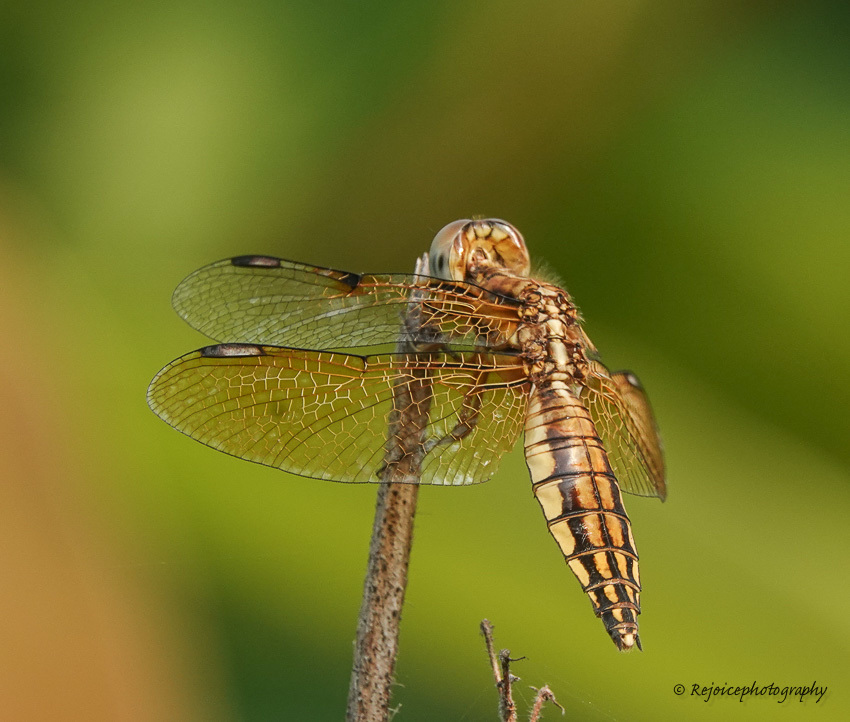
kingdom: Animalia
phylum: Arthropoda
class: Insecta
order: Odonata
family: Libellulidae
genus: Palpopleura
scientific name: Palpopleura sexmaculata
